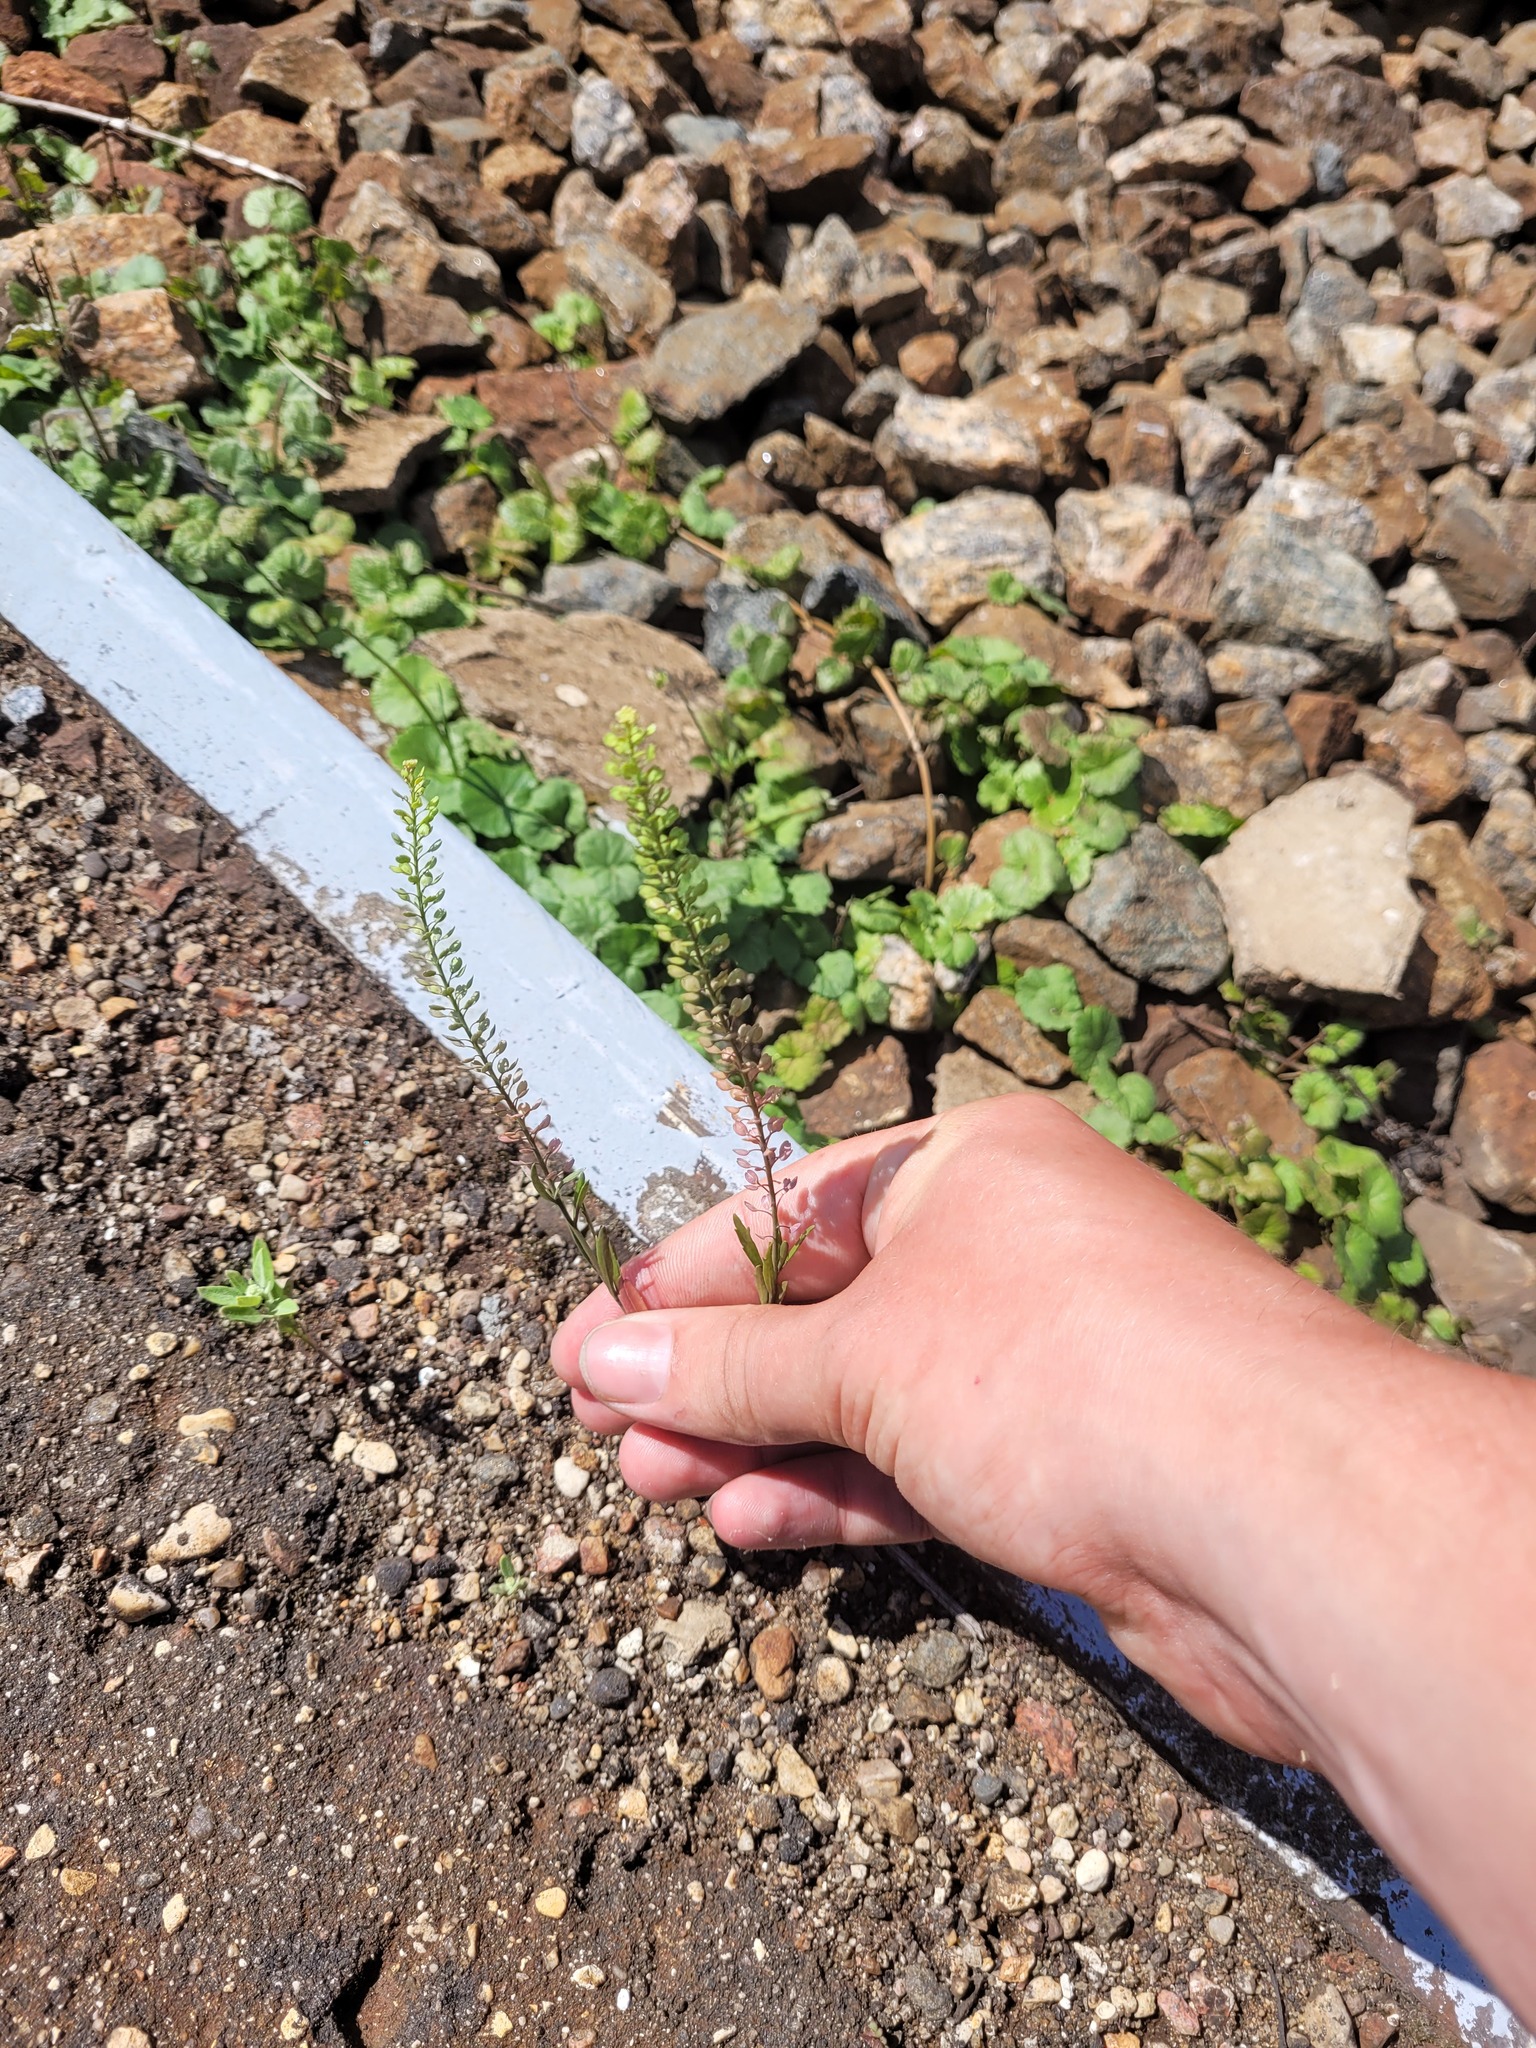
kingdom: Plantae
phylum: Tracheophyta
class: Magnoliopsida
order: Brassicales
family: Brassicaceae
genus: Lepidium
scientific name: Lepidium densiflorum
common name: Miner's pepperwort
